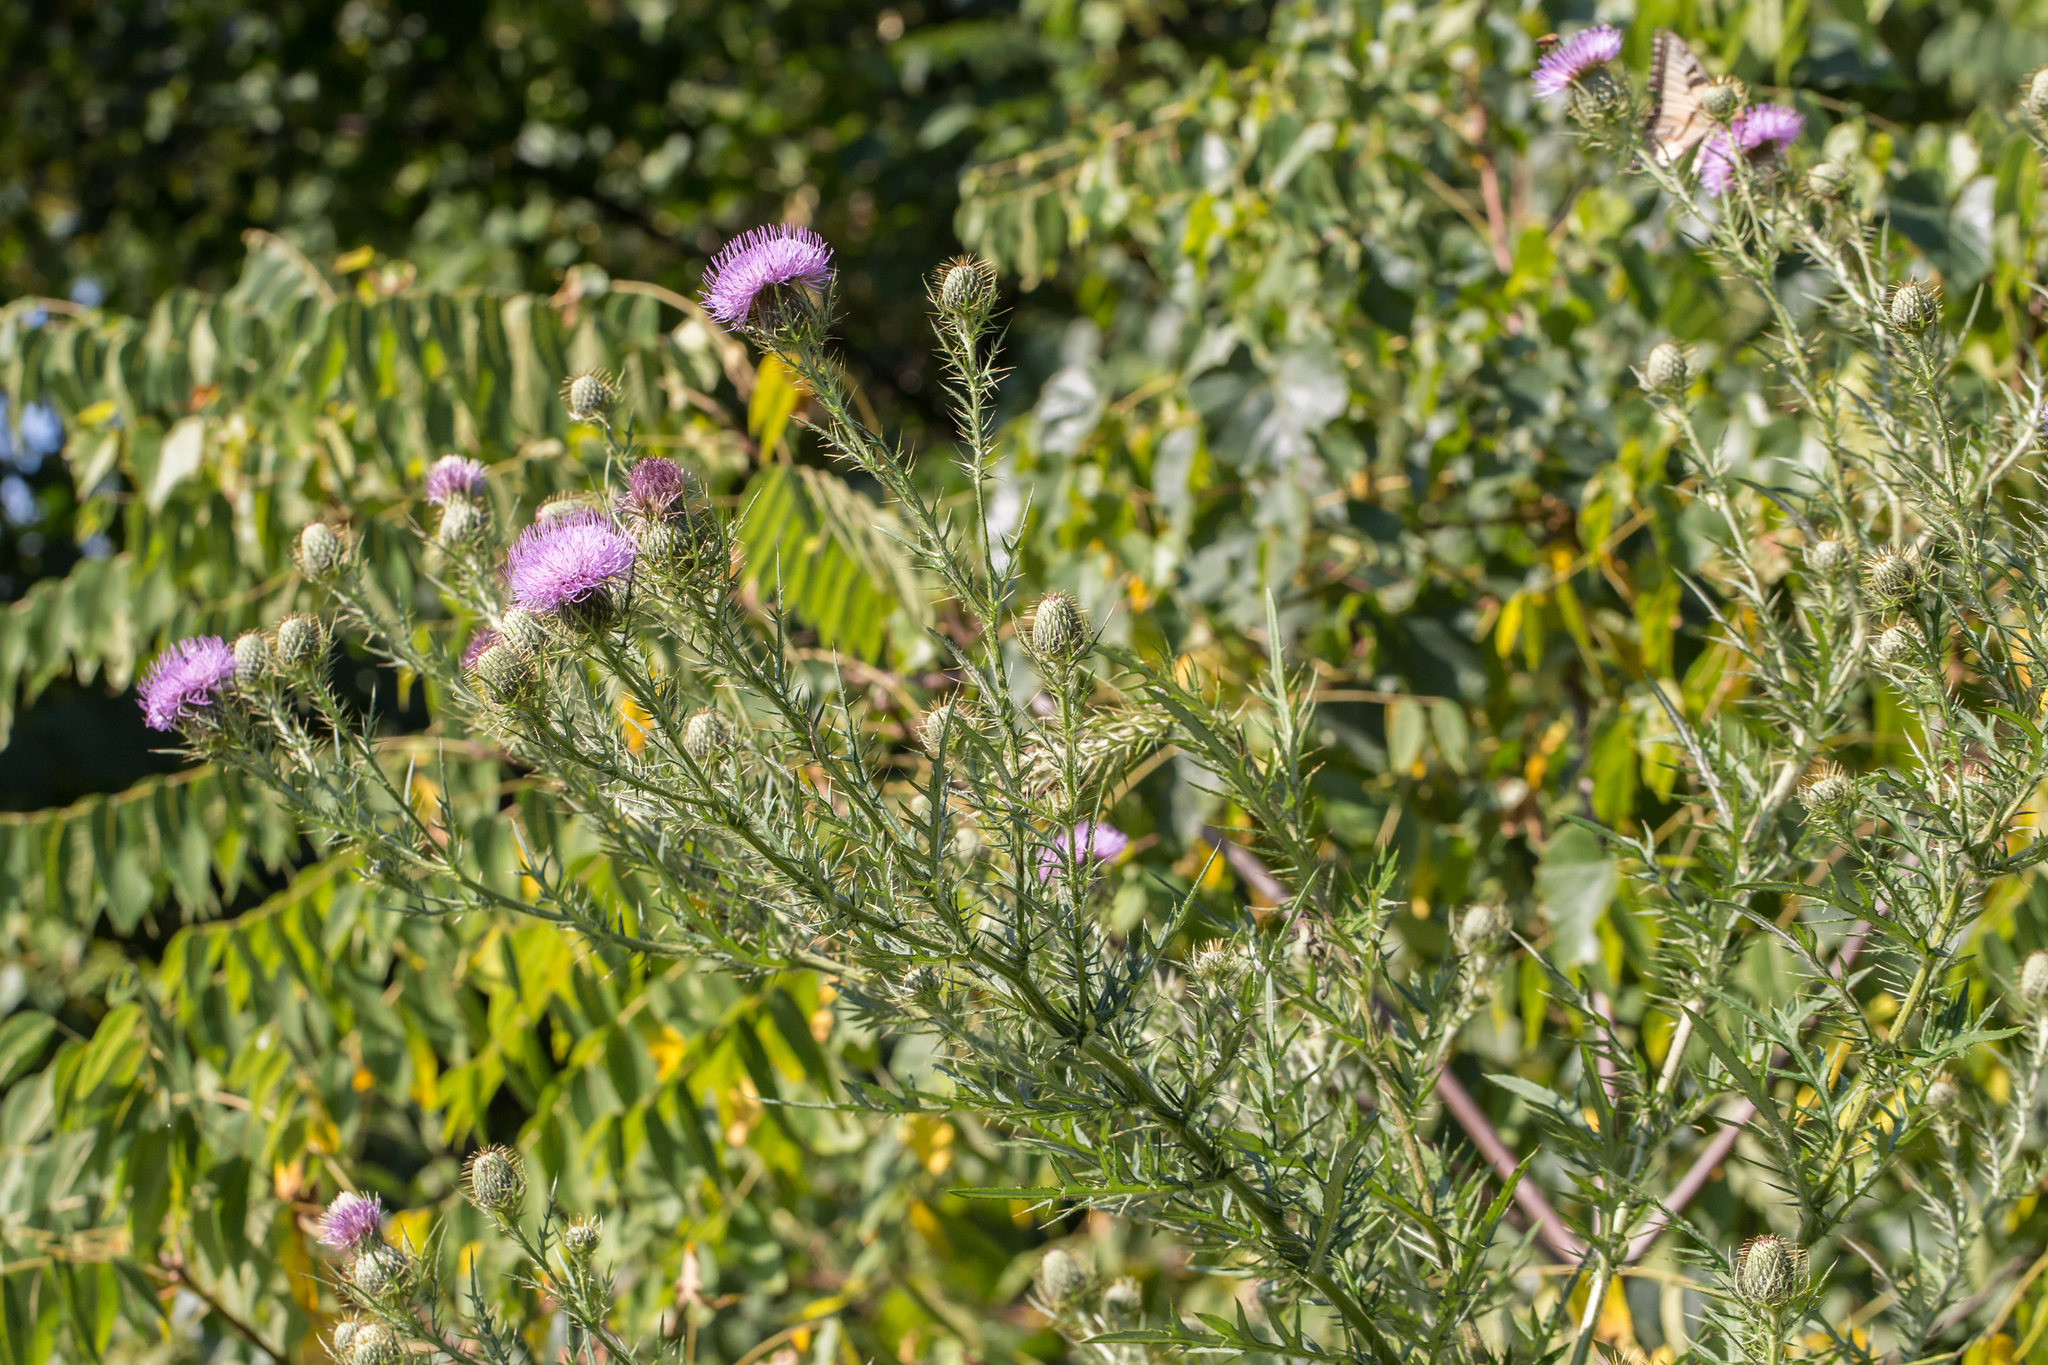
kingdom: Plantae
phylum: Tracheophyta
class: Magnoliopsida
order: Asterales
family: Asteraceae
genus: Cirsium
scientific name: Cirsium discolor
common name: Field thistle
